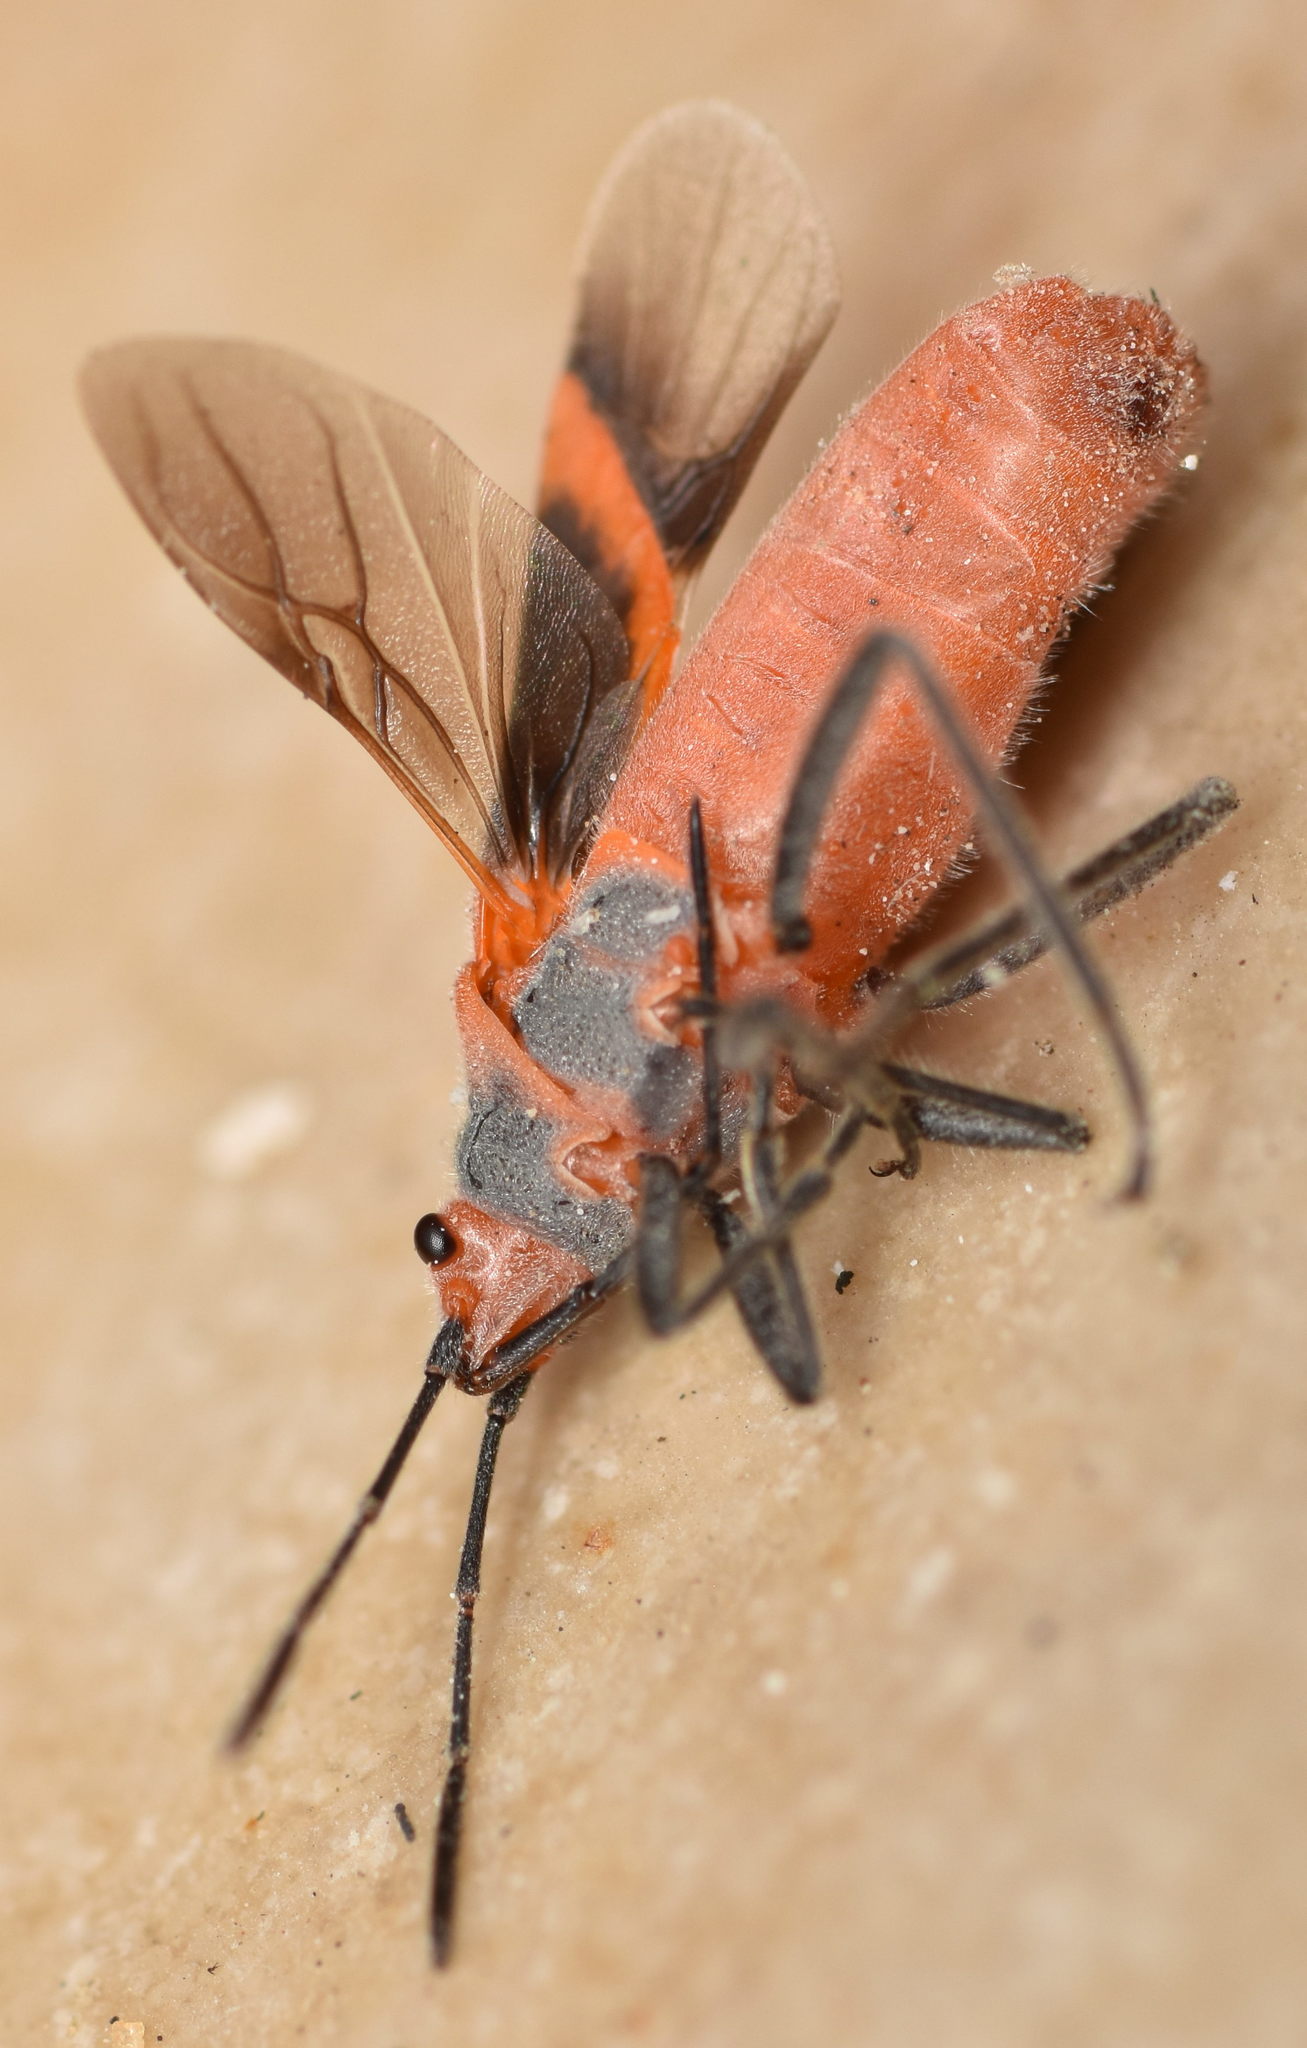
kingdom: Animalia
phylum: Arthropoda
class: Insecta
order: Hemiptera
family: Lygaeidae
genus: Caenocoris
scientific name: Caenocoris nerii
